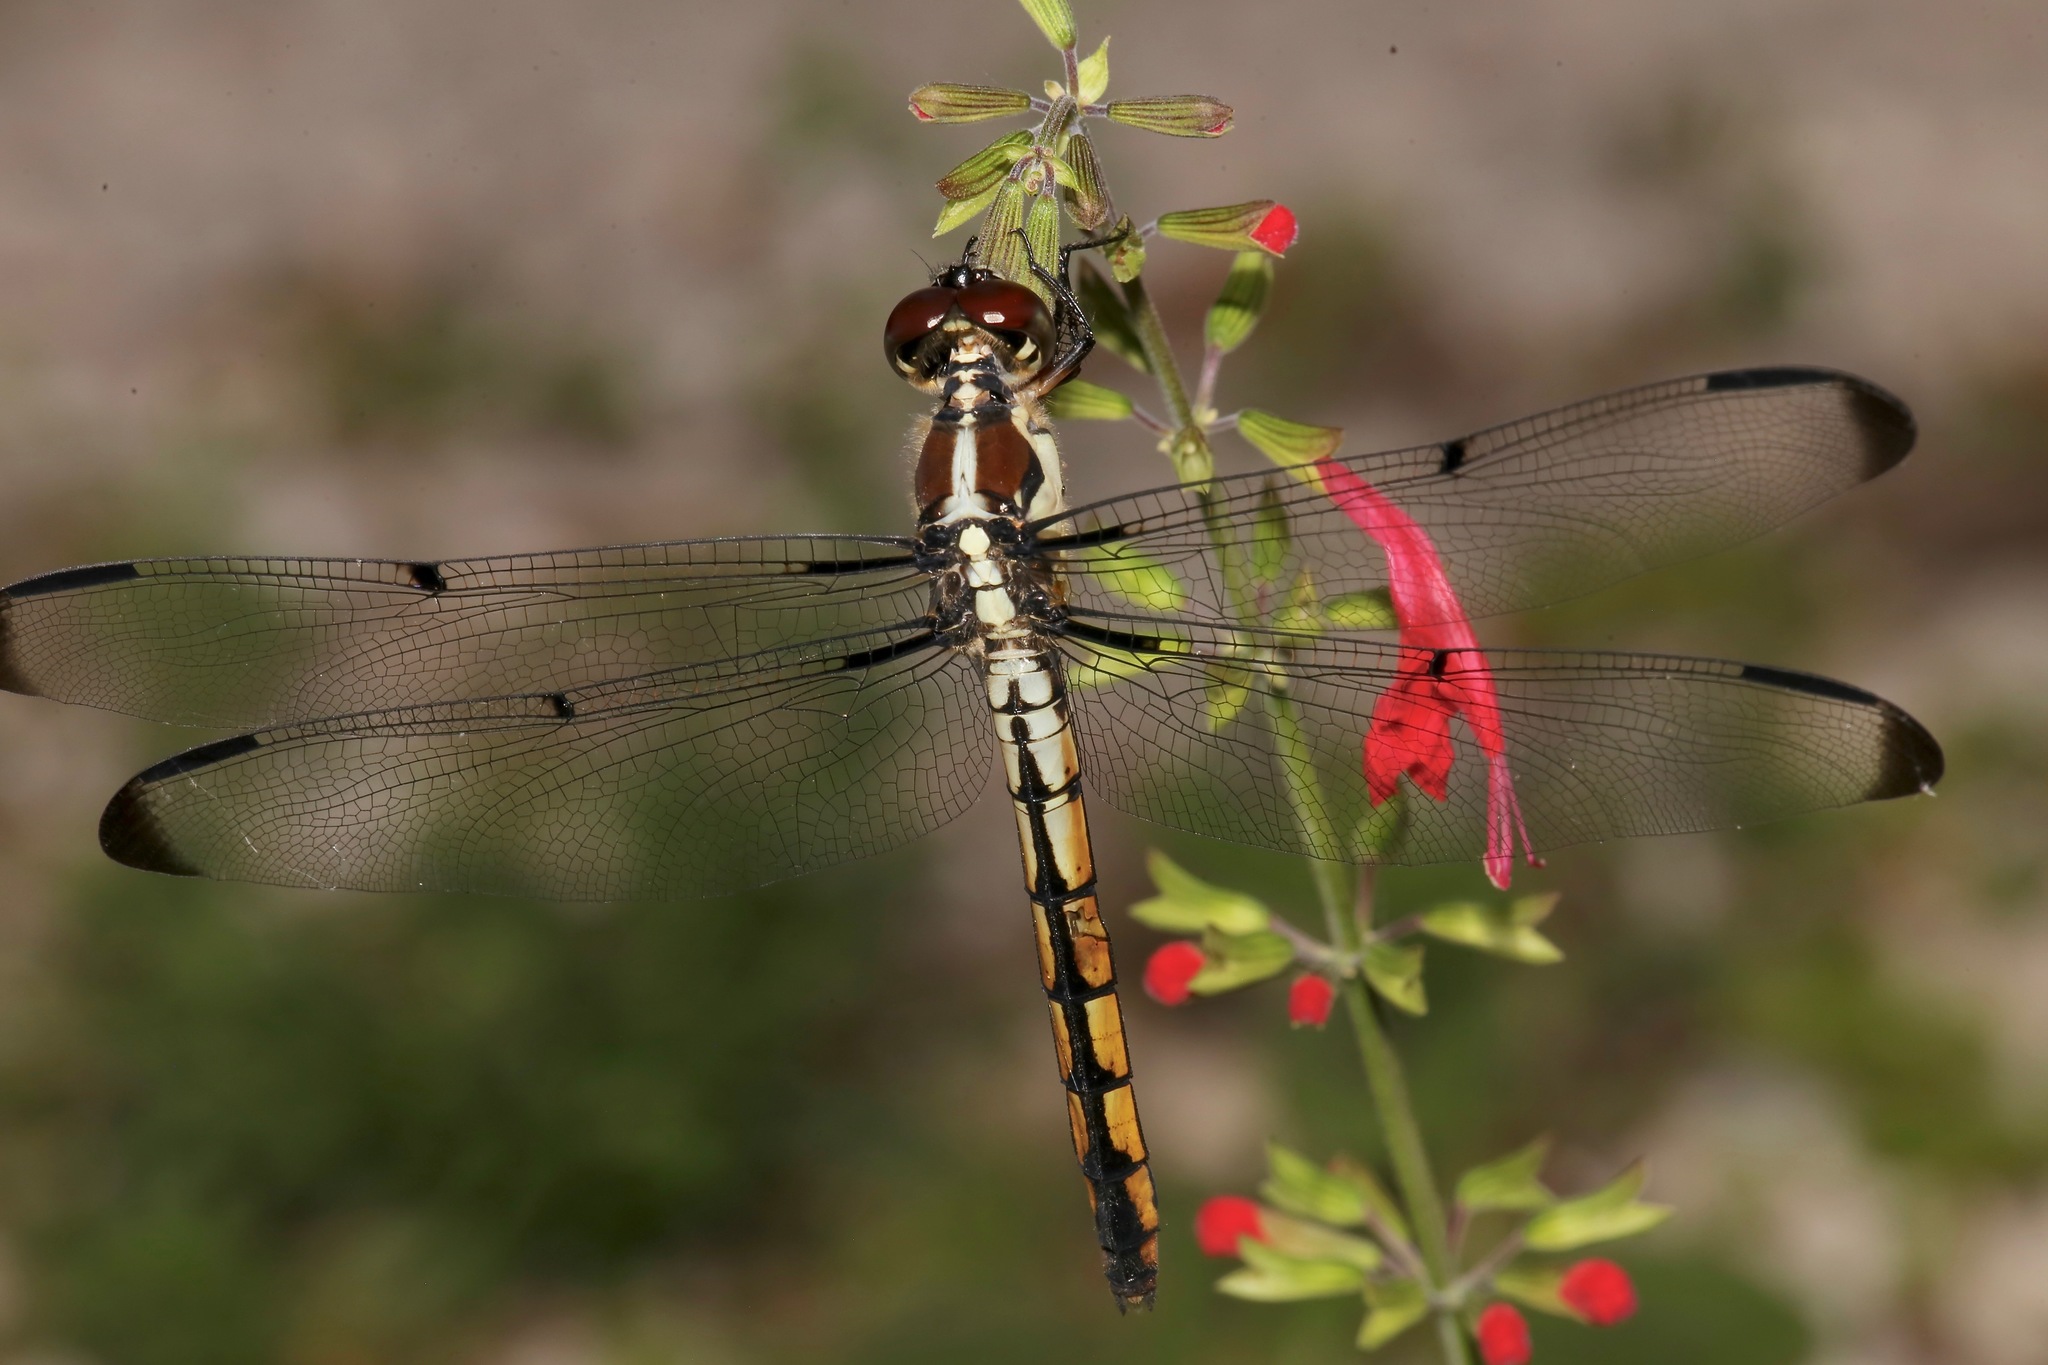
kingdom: Animalia
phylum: Arthropoda
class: Insecta
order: Odonata
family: Libellulidae
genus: Libellula
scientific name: Libellula vibrans
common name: Great blue skimmer
